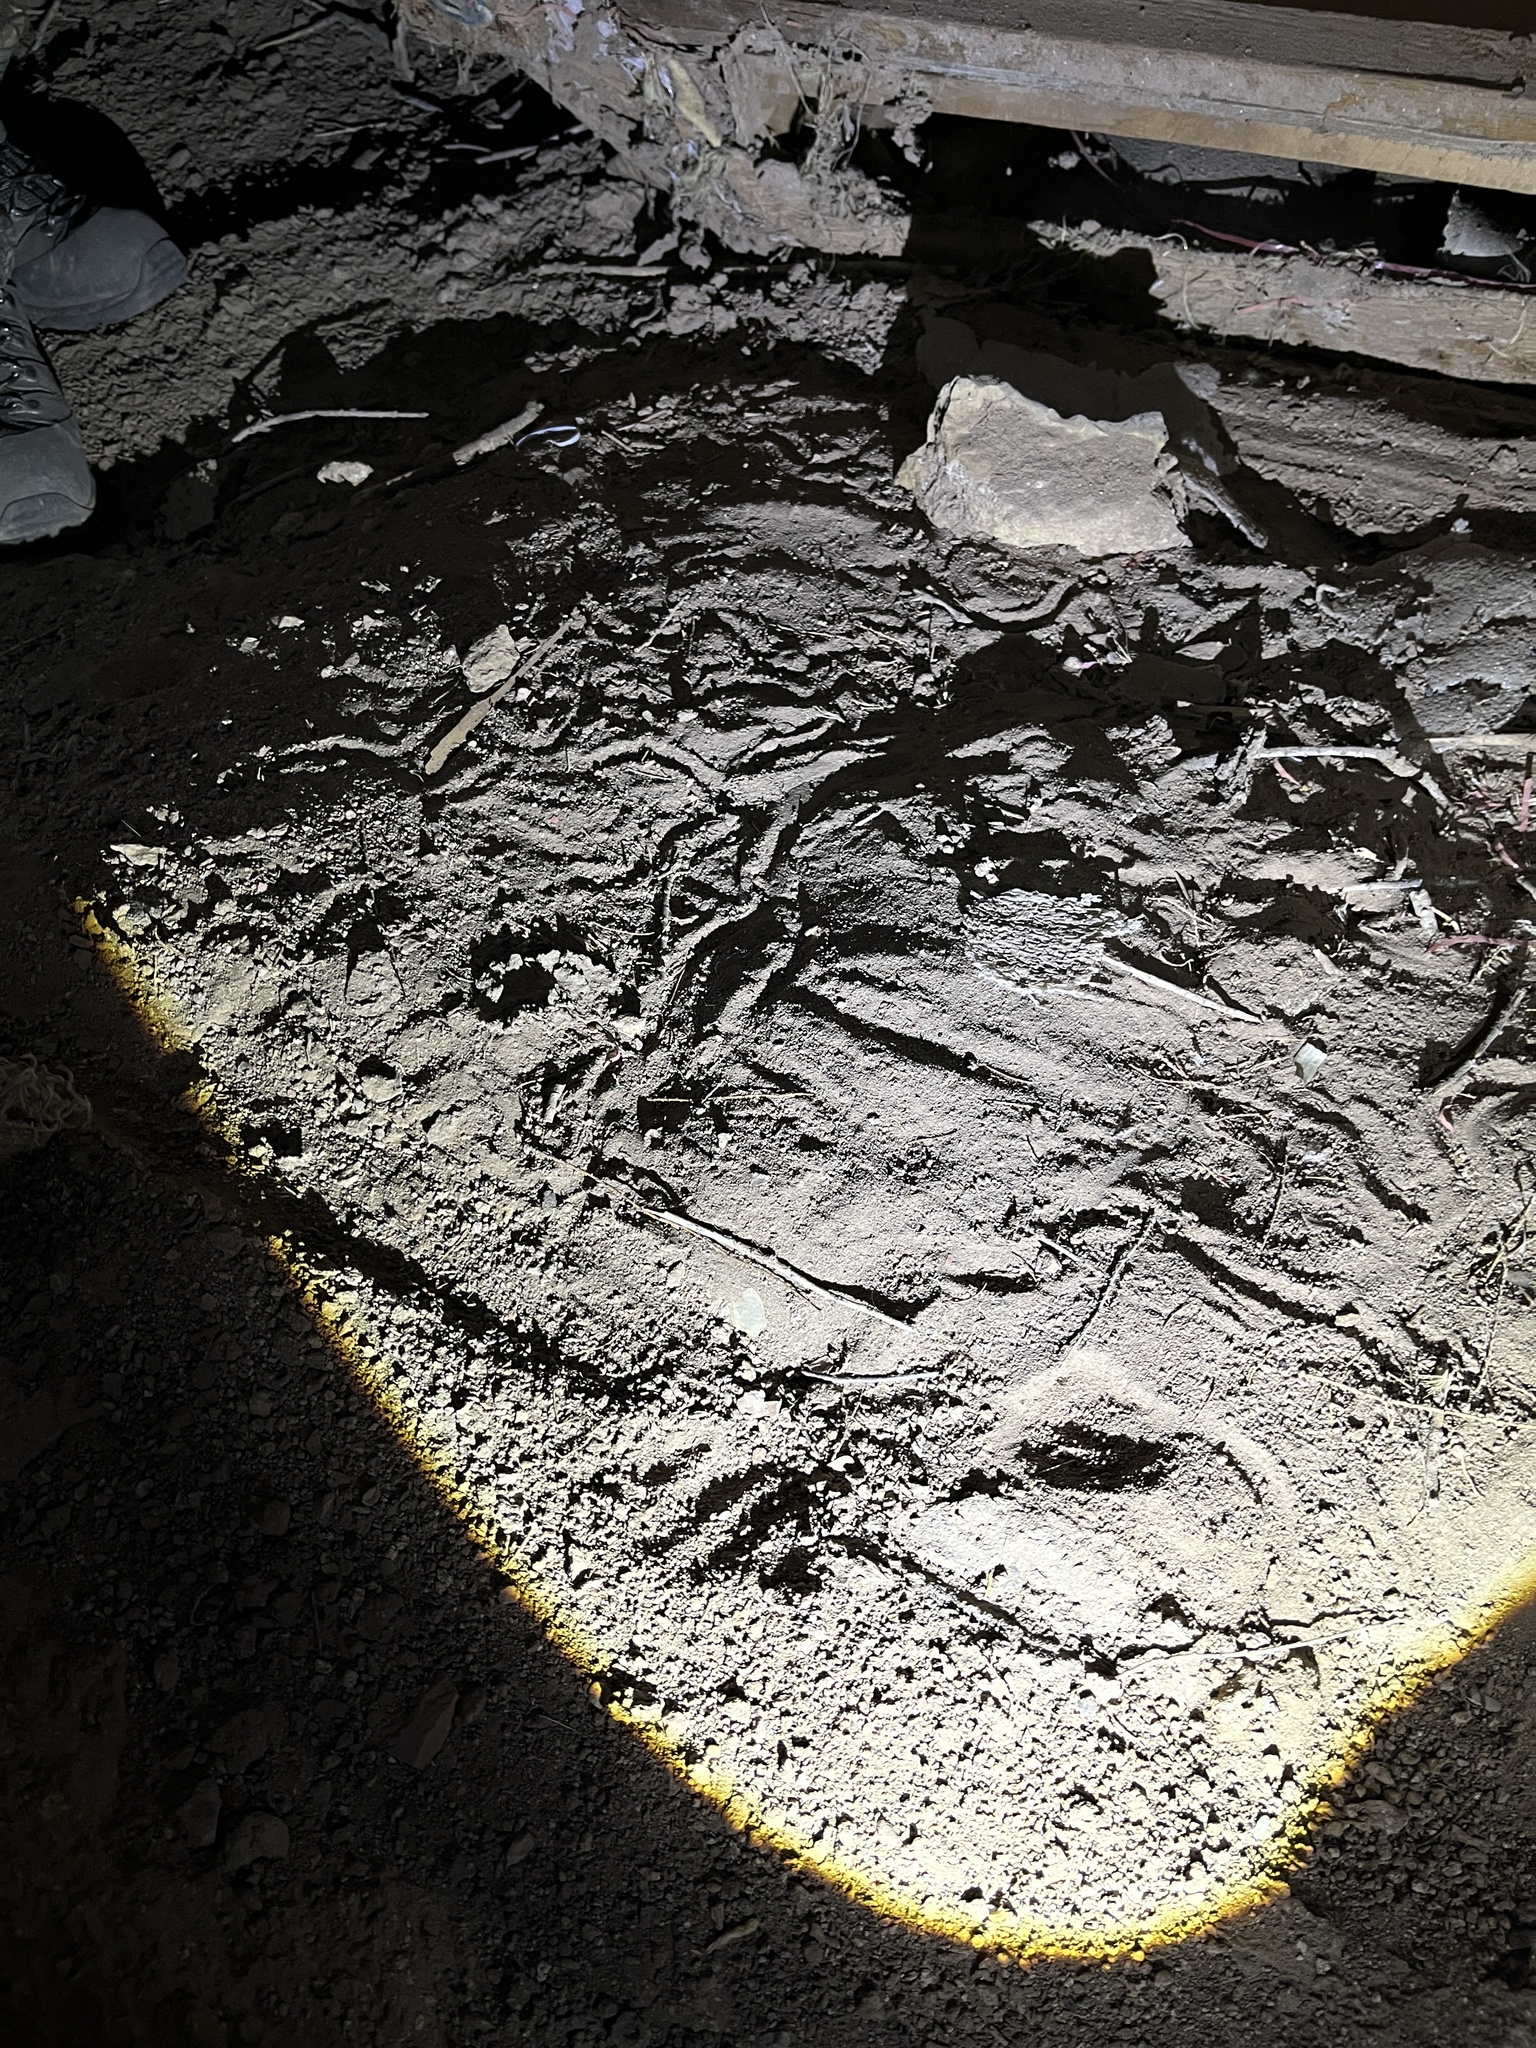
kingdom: Animalia
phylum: Chordata
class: Squamata
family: Scincidae
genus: Ophiomorus
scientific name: Ophiomorus nuchalis
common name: Plateau snake skink
